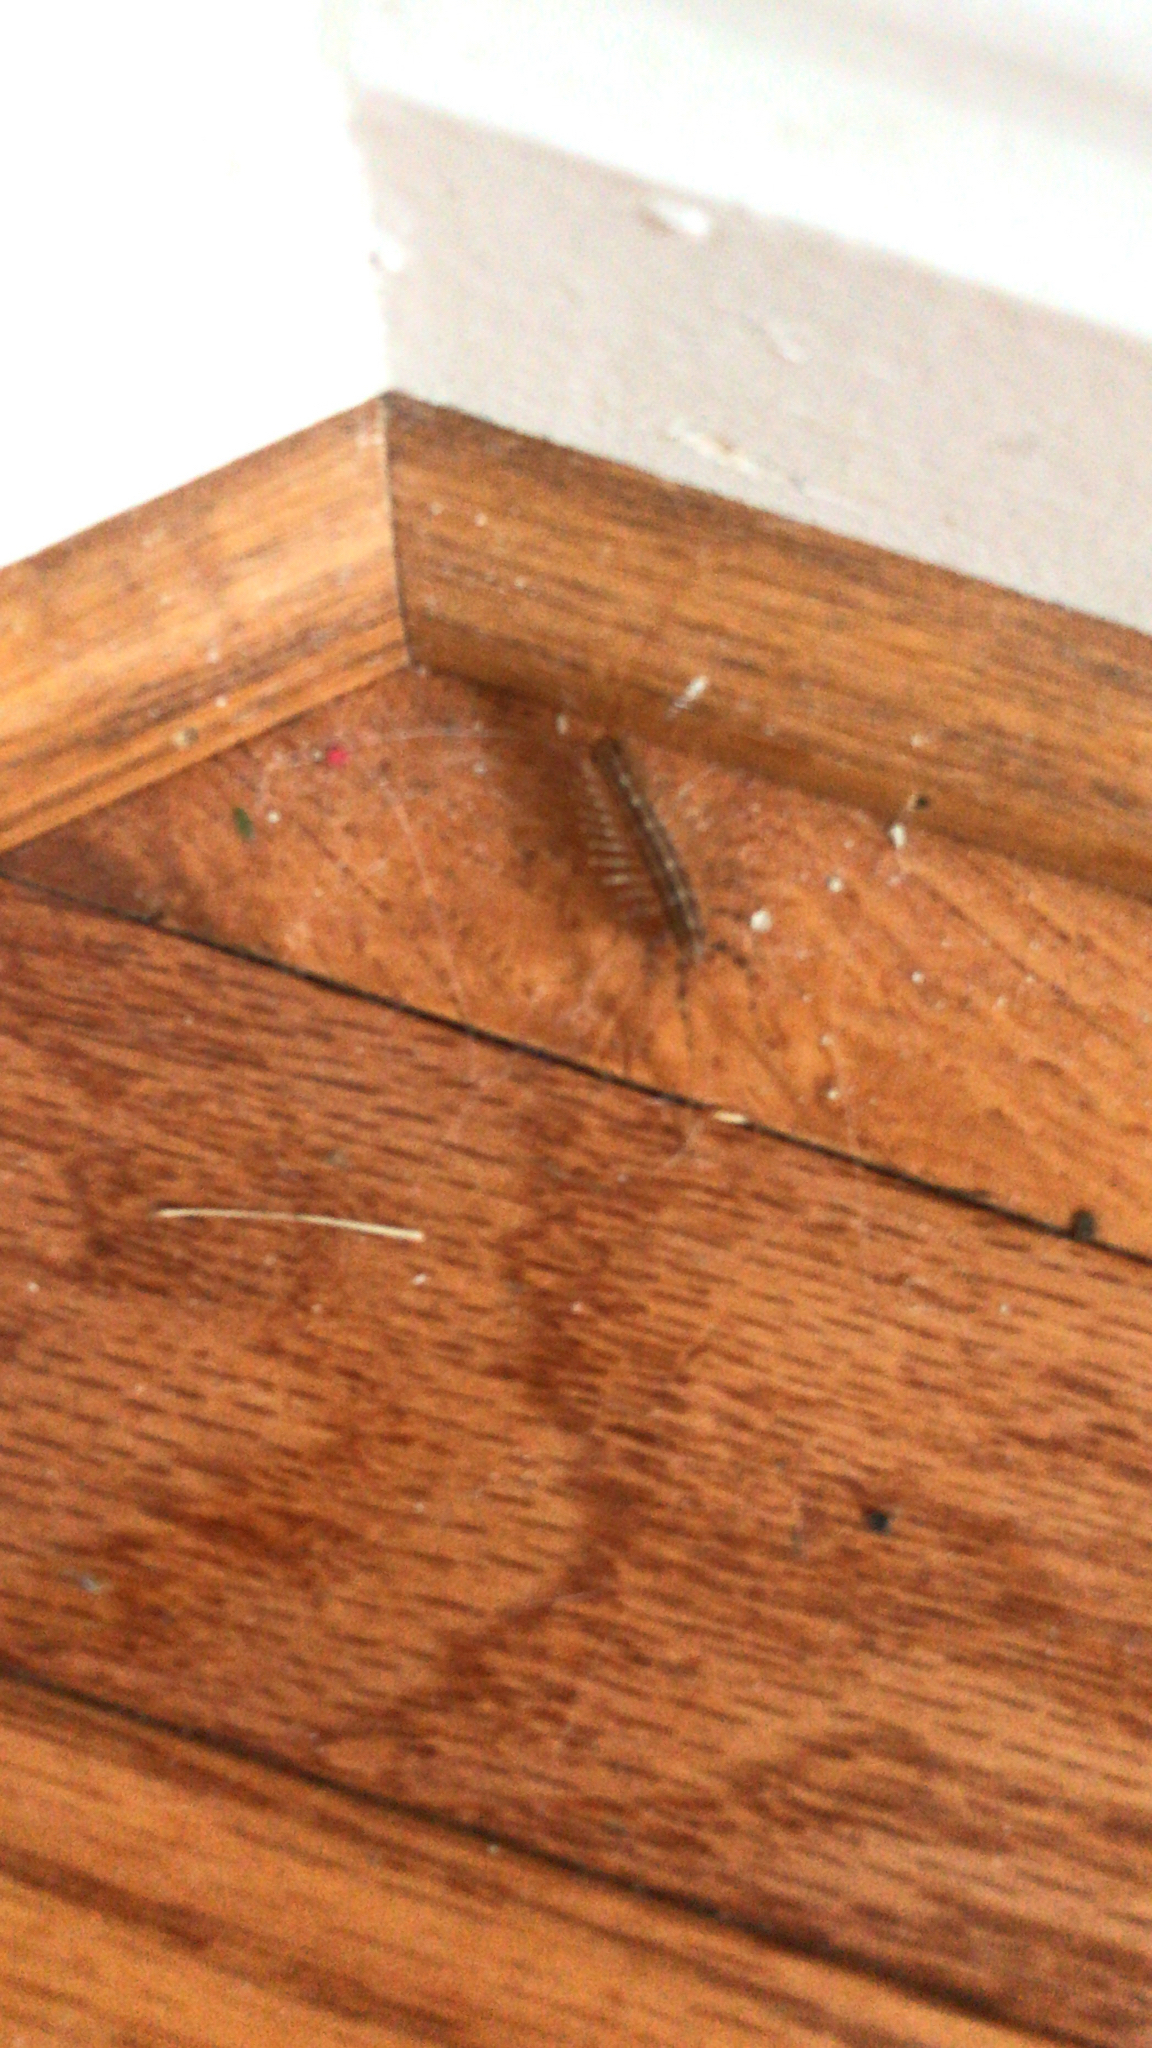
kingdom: Animalia
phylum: Arthropoda
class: Chilopoda
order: Scutigeromorpha
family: Scutigeridae
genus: Scutigera
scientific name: Scutigera coleoptrata
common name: House centipede
